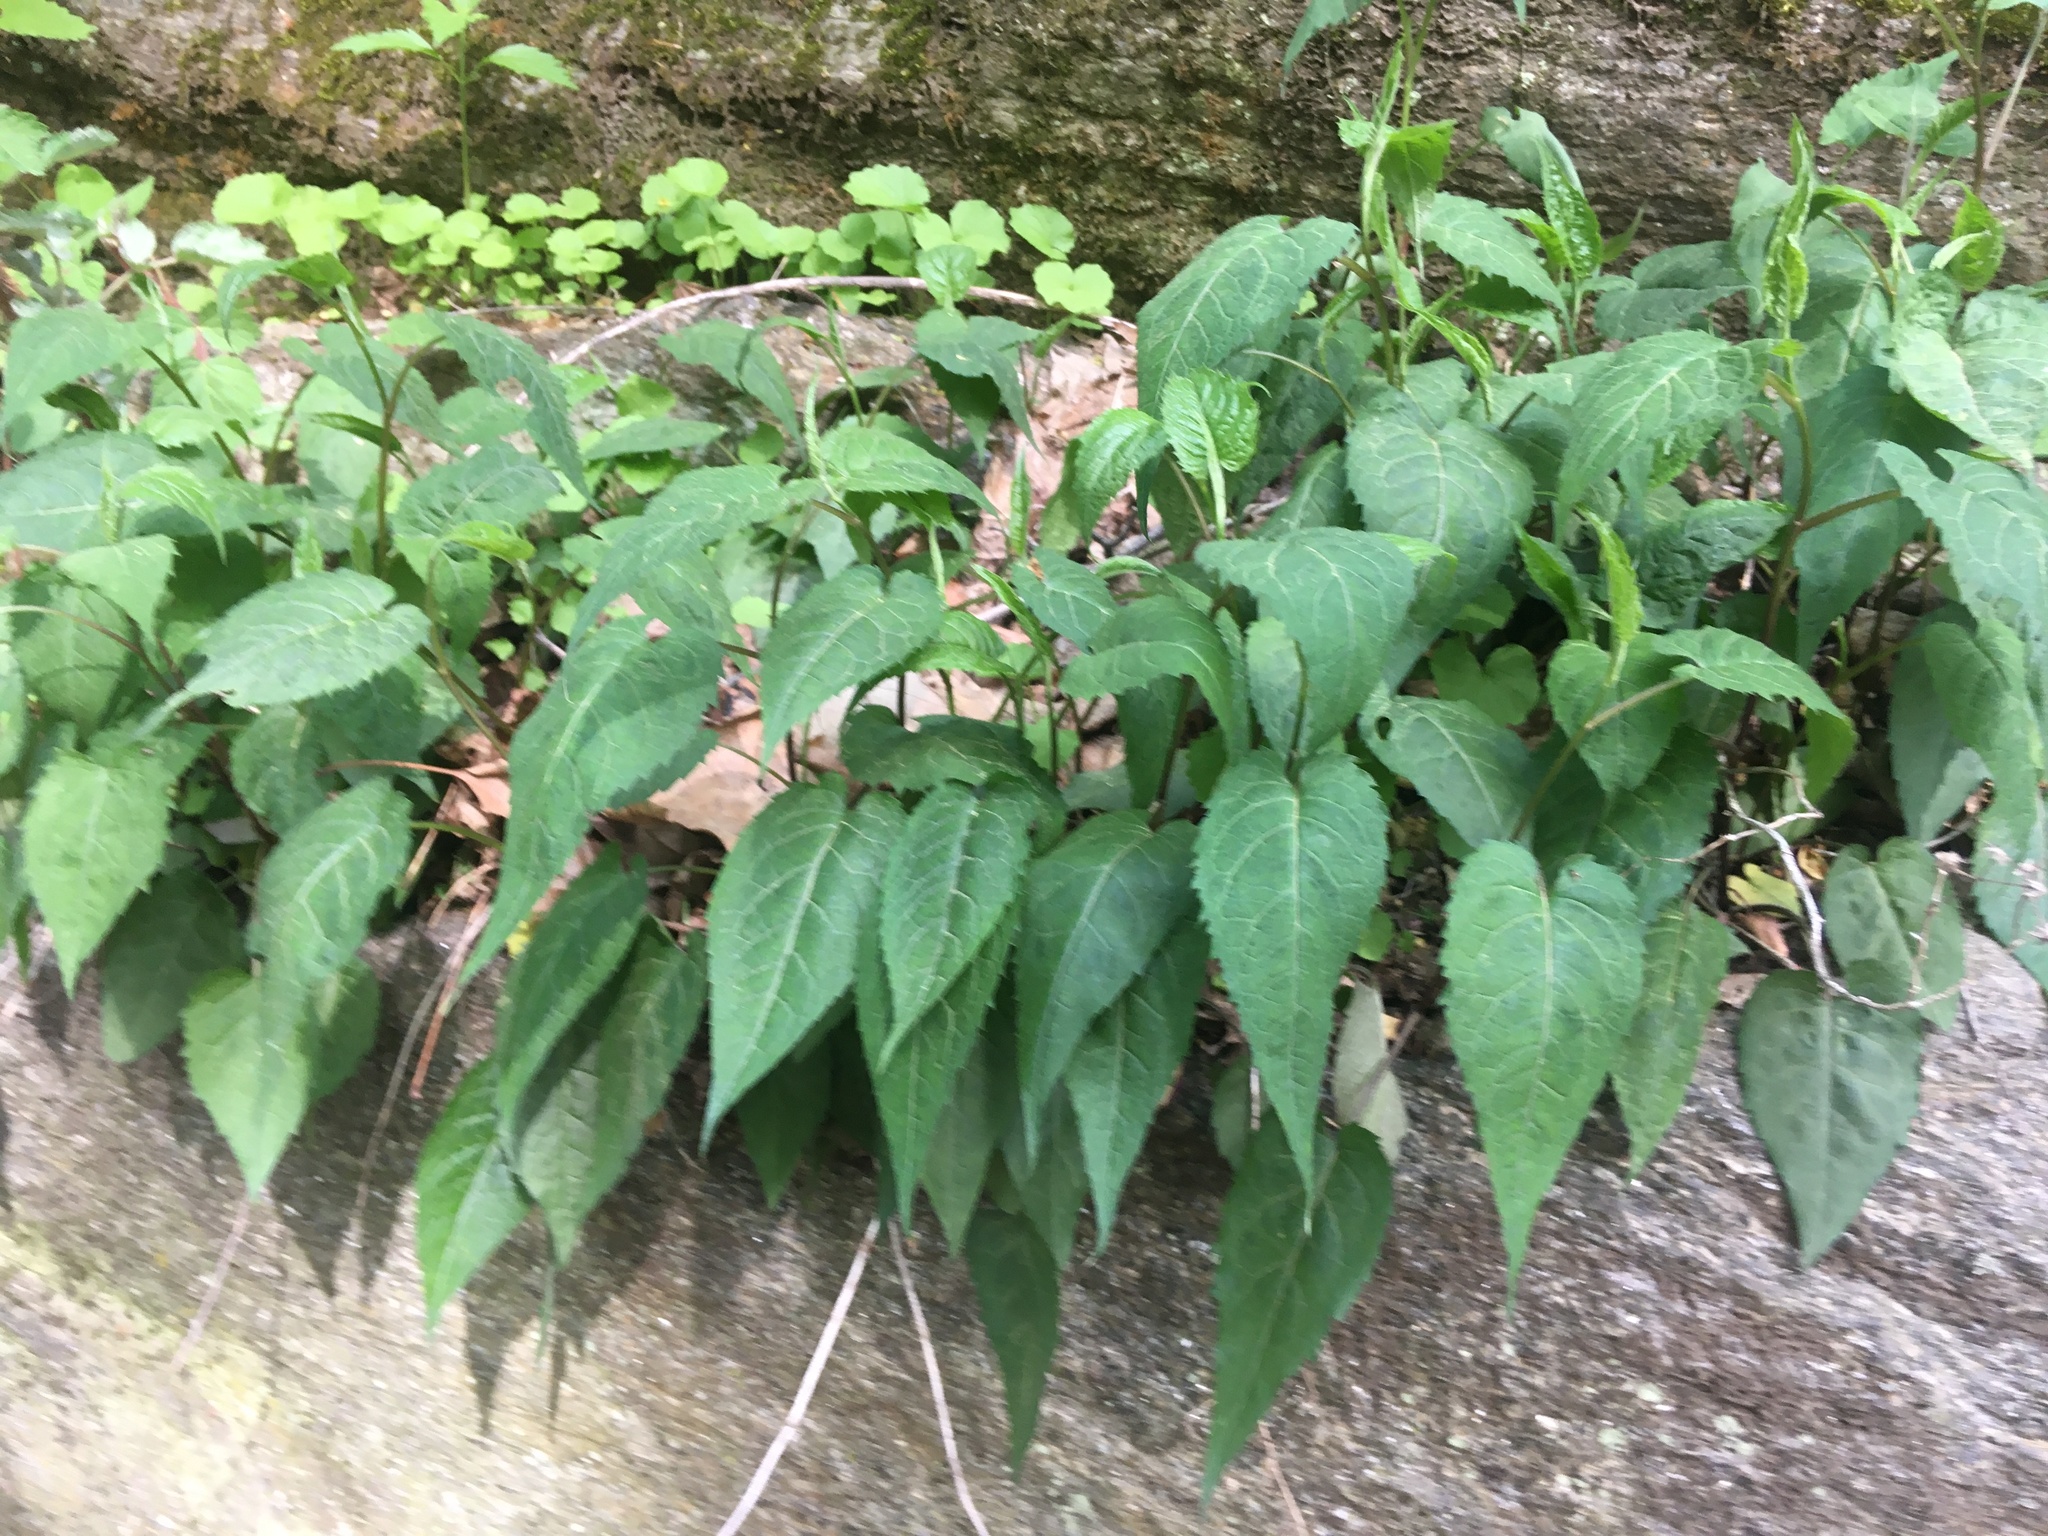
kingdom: Plantae
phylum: Tracheophyta
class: Magnoliopsida
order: Asterales
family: Asteraceae
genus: Eurybia
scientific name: Eurybia divaricata
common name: White wood aster
